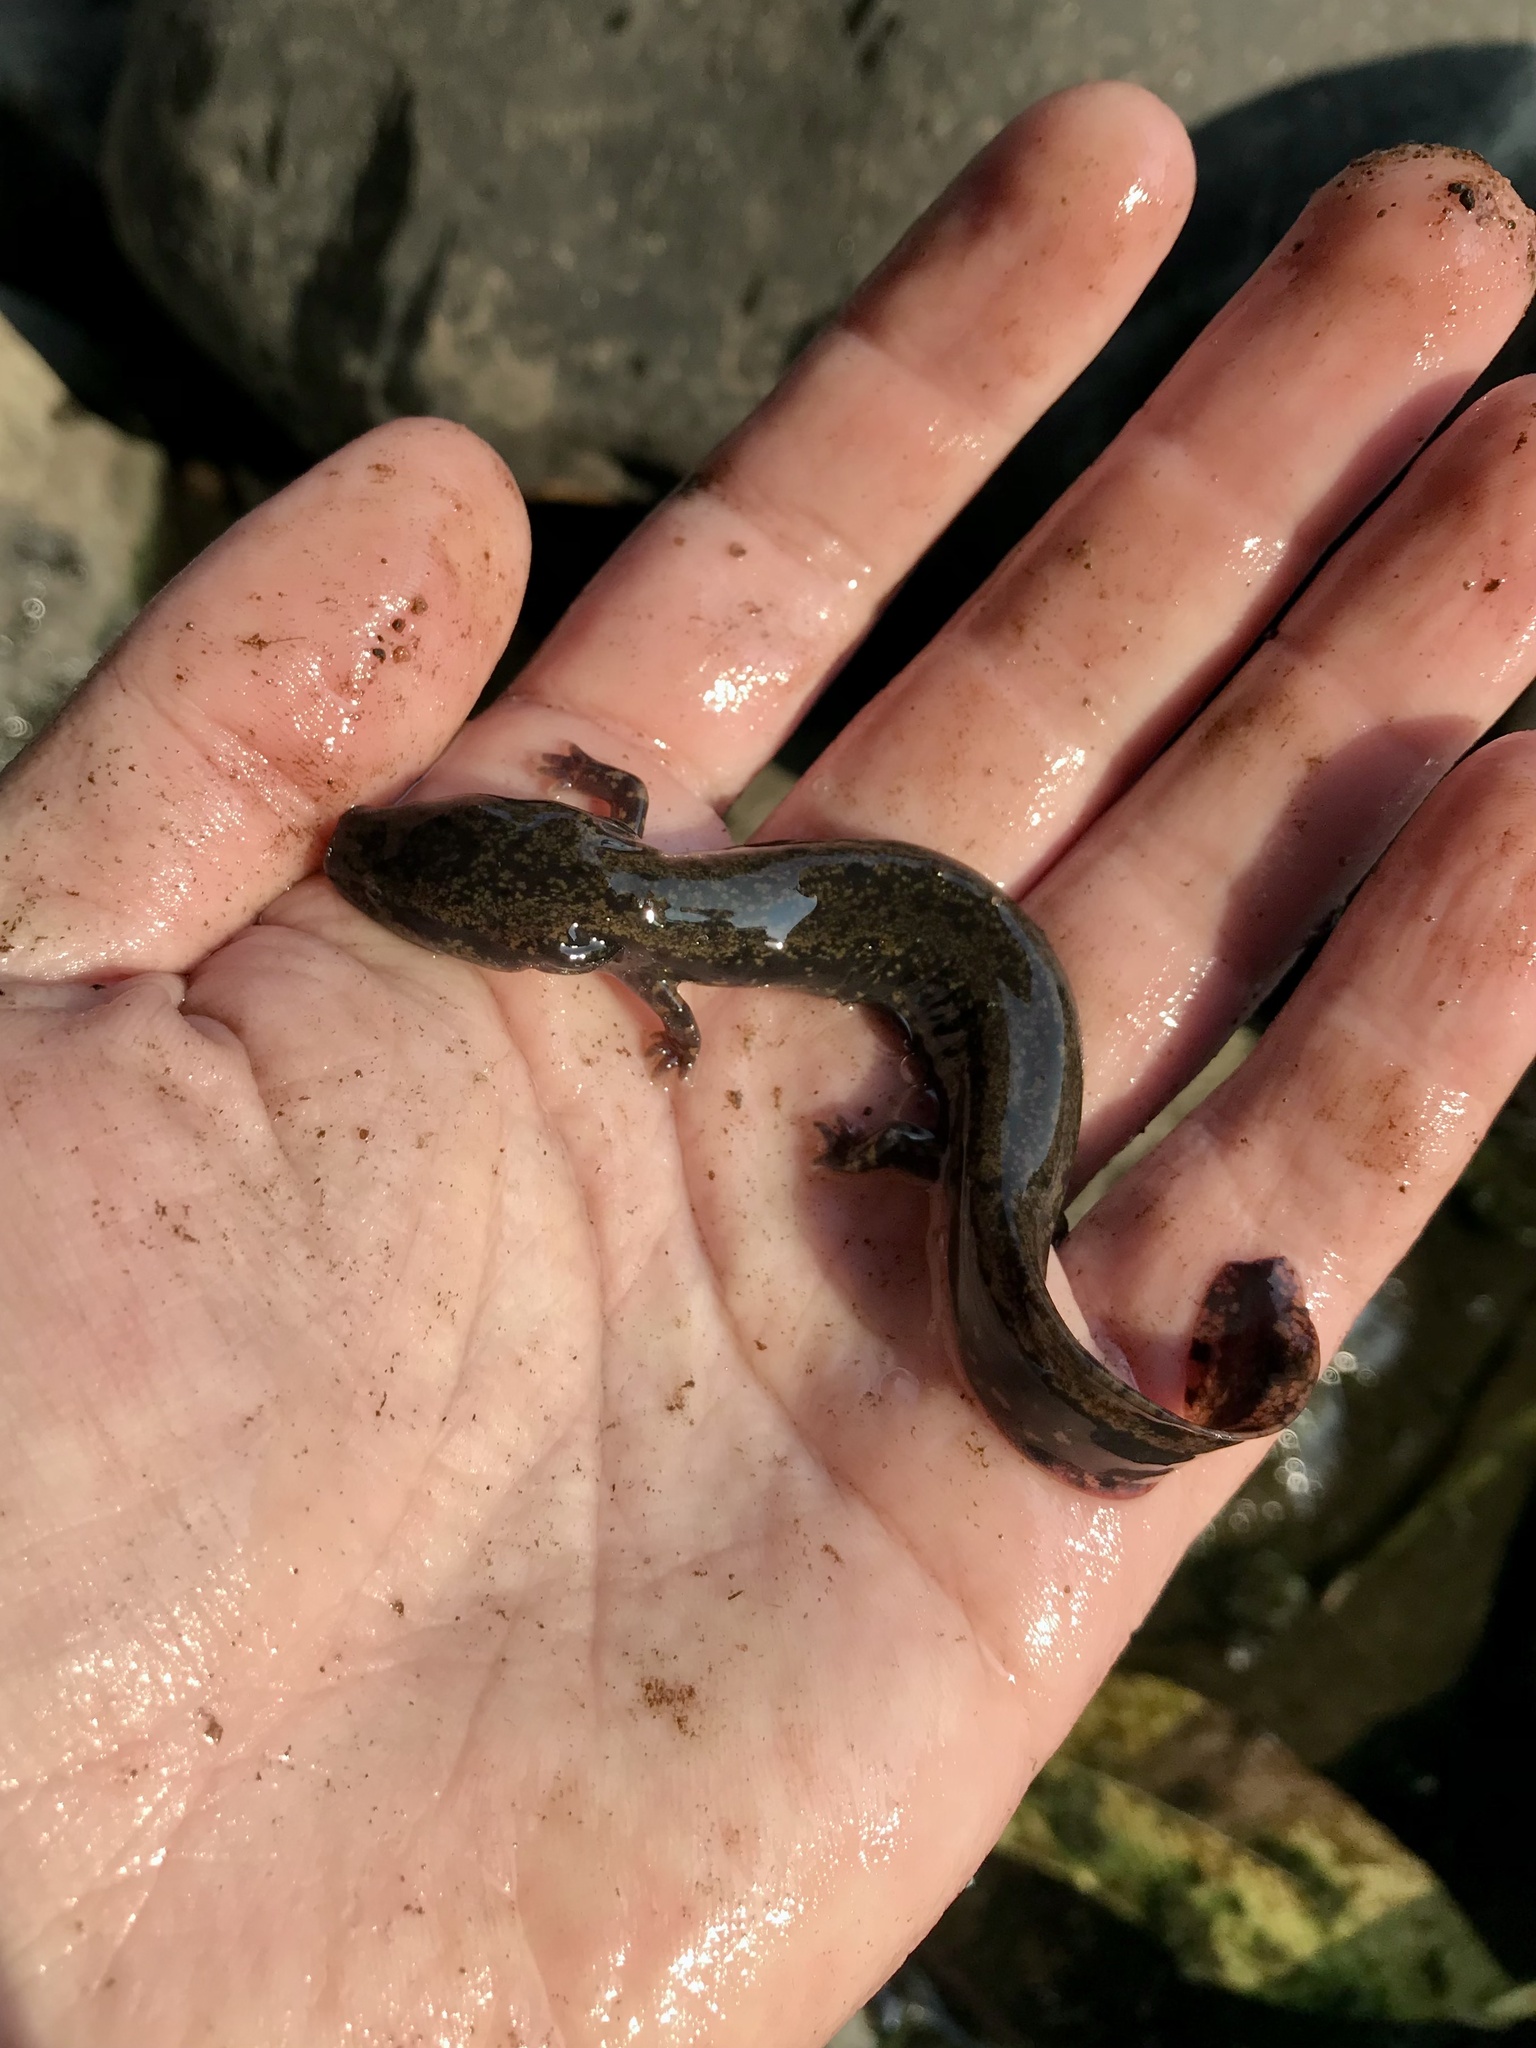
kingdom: Animalia
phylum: Chordata
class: Amphibia
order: Caudata
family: Proteidae
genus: Necturus
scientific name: Necturus maculosus
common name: Mudpuppy
